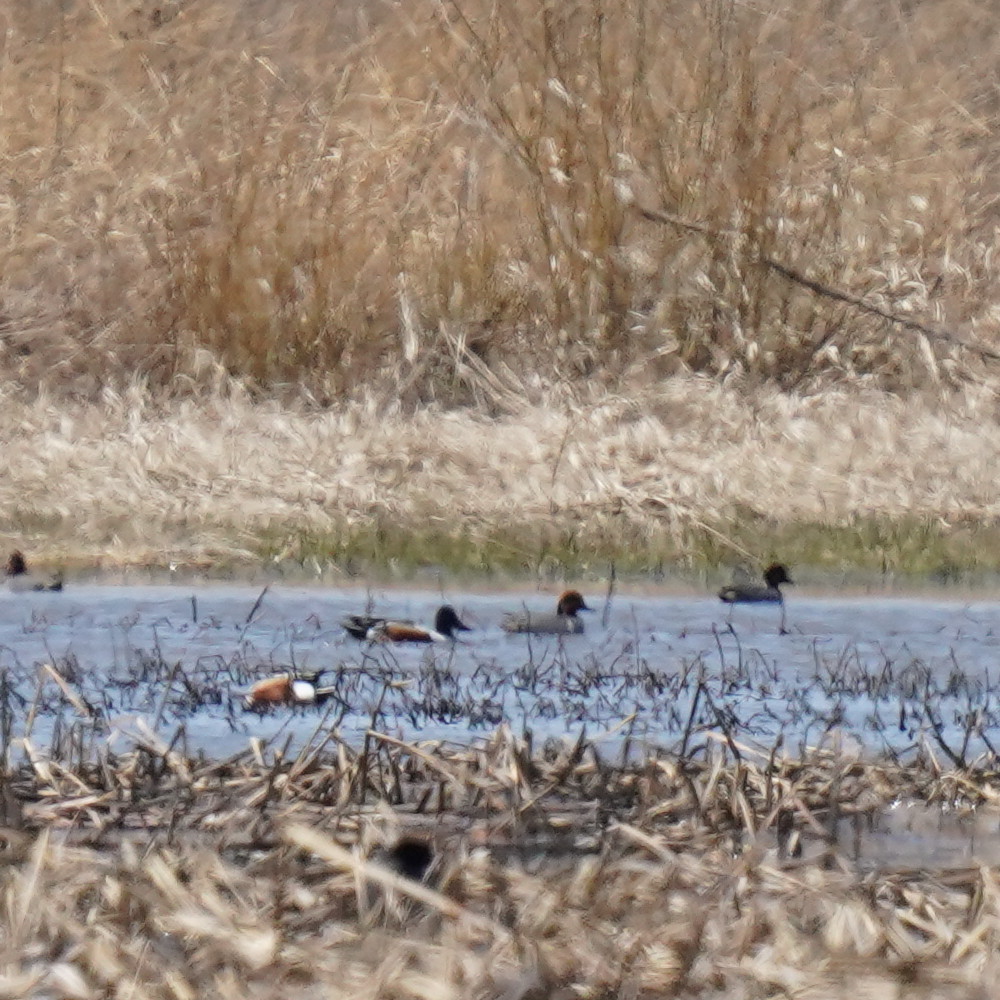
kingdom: Animalia
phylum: Chordata
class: Aves
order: Anseriformes
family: Anatidae
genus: Spatula
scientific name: Spatula clypeata
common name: Northern shoveler
